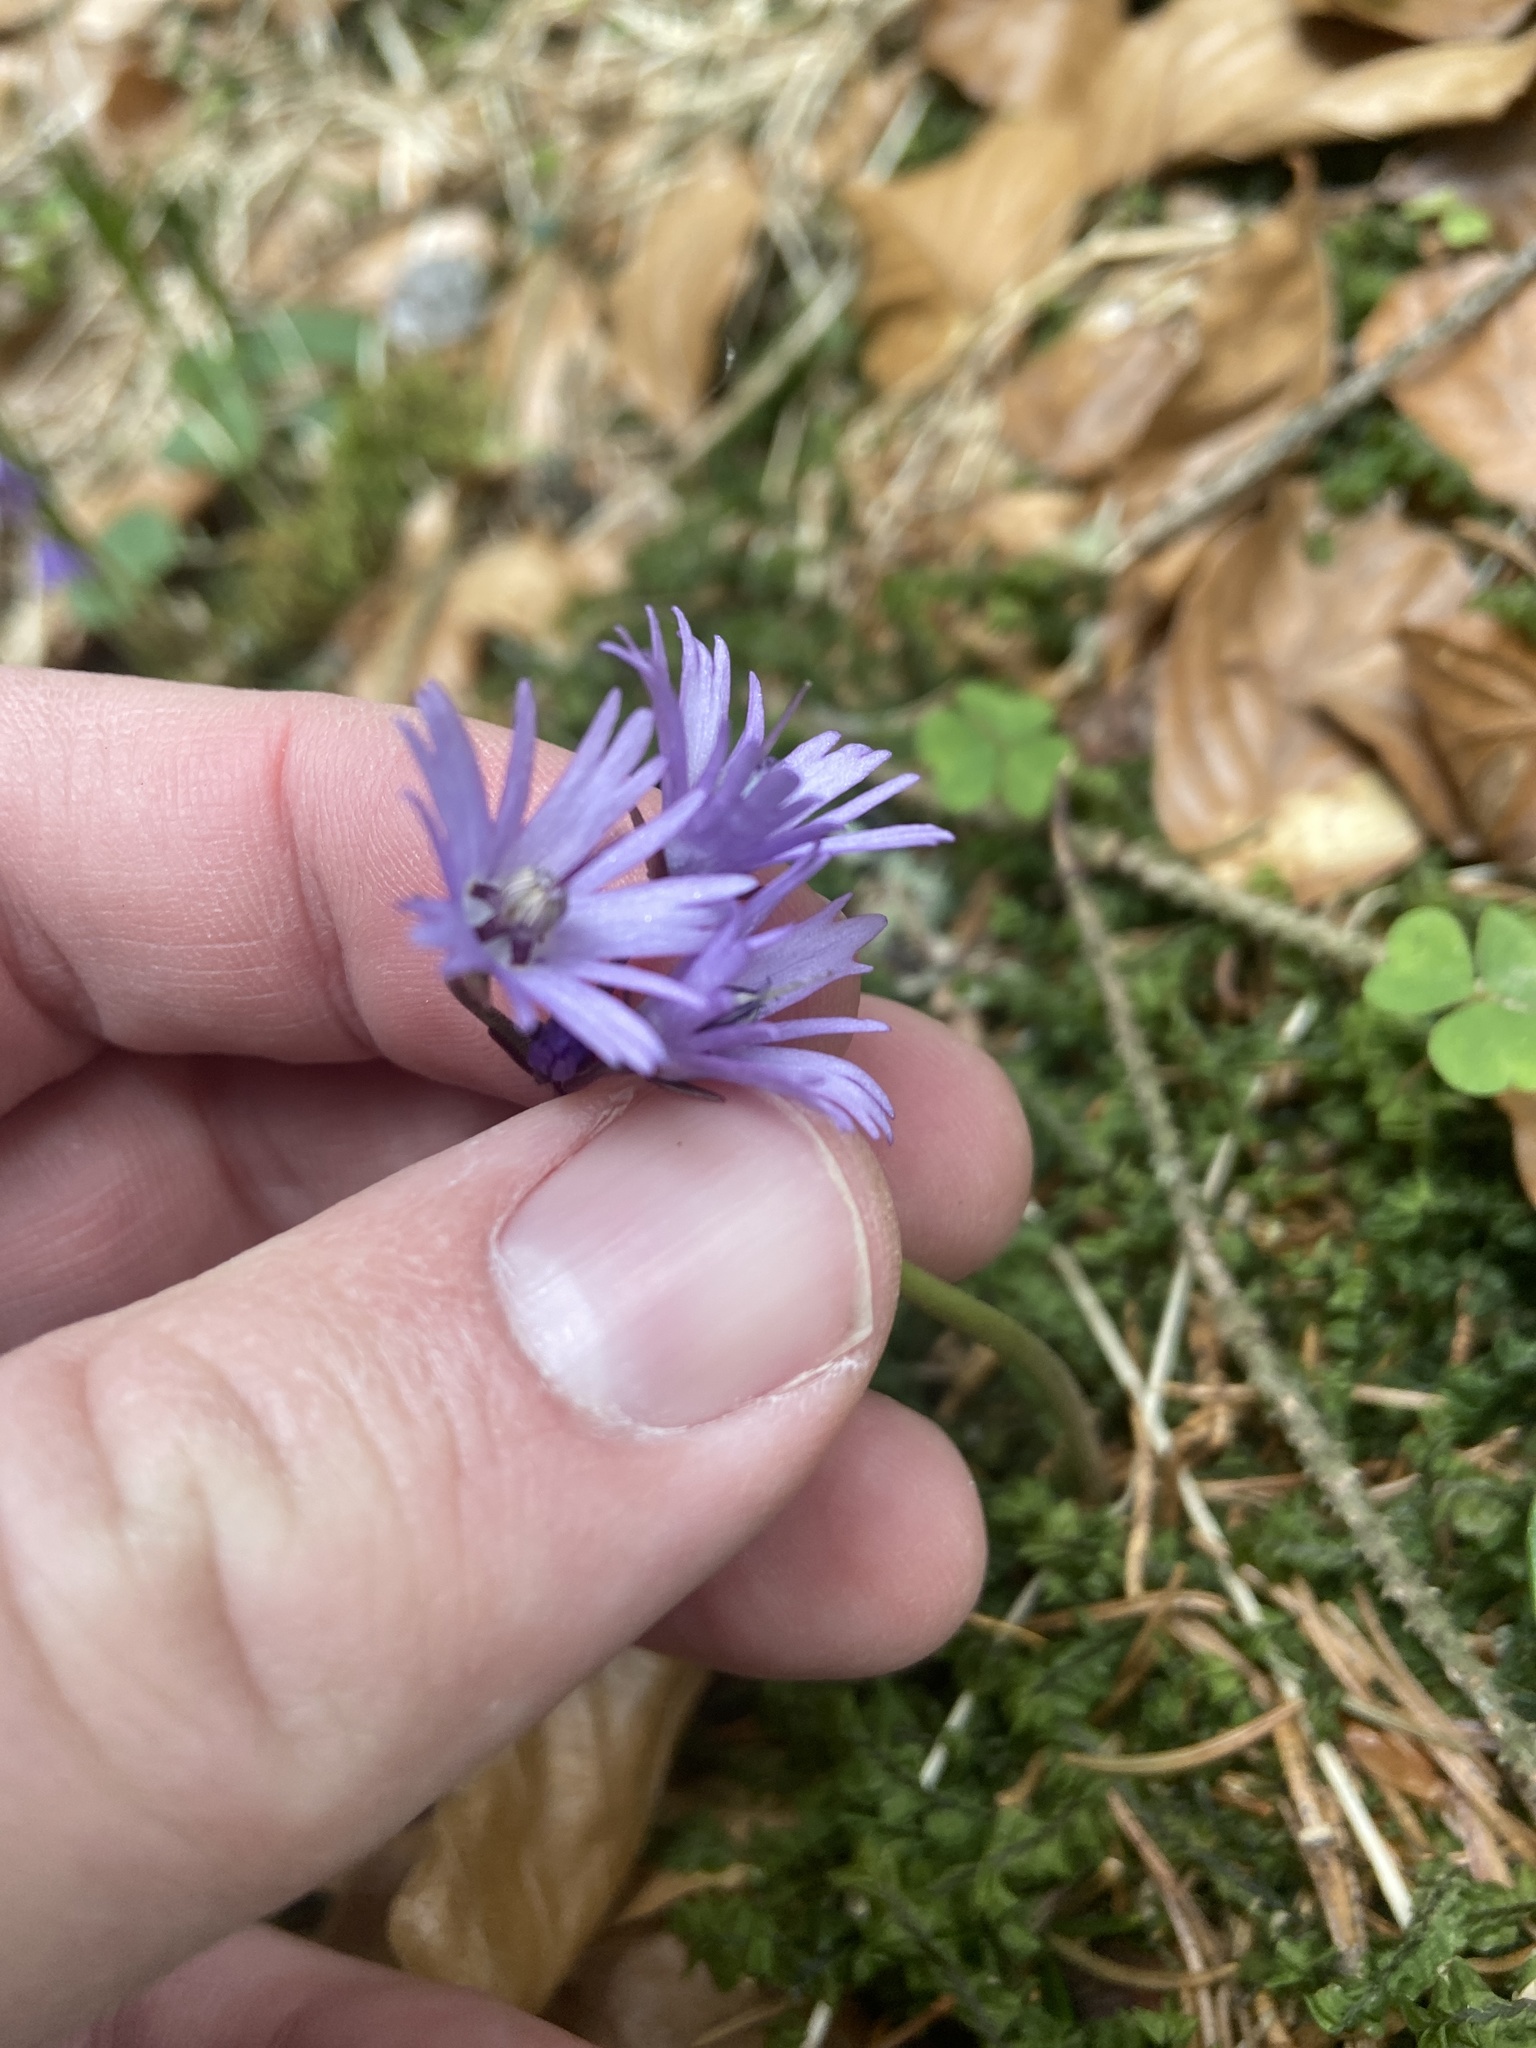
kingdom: Plantae
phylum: Tracheophyta
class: Magnoliopsida
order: Ericales
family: Primulaceae
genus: Soldanella
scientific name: Soldanella montana
